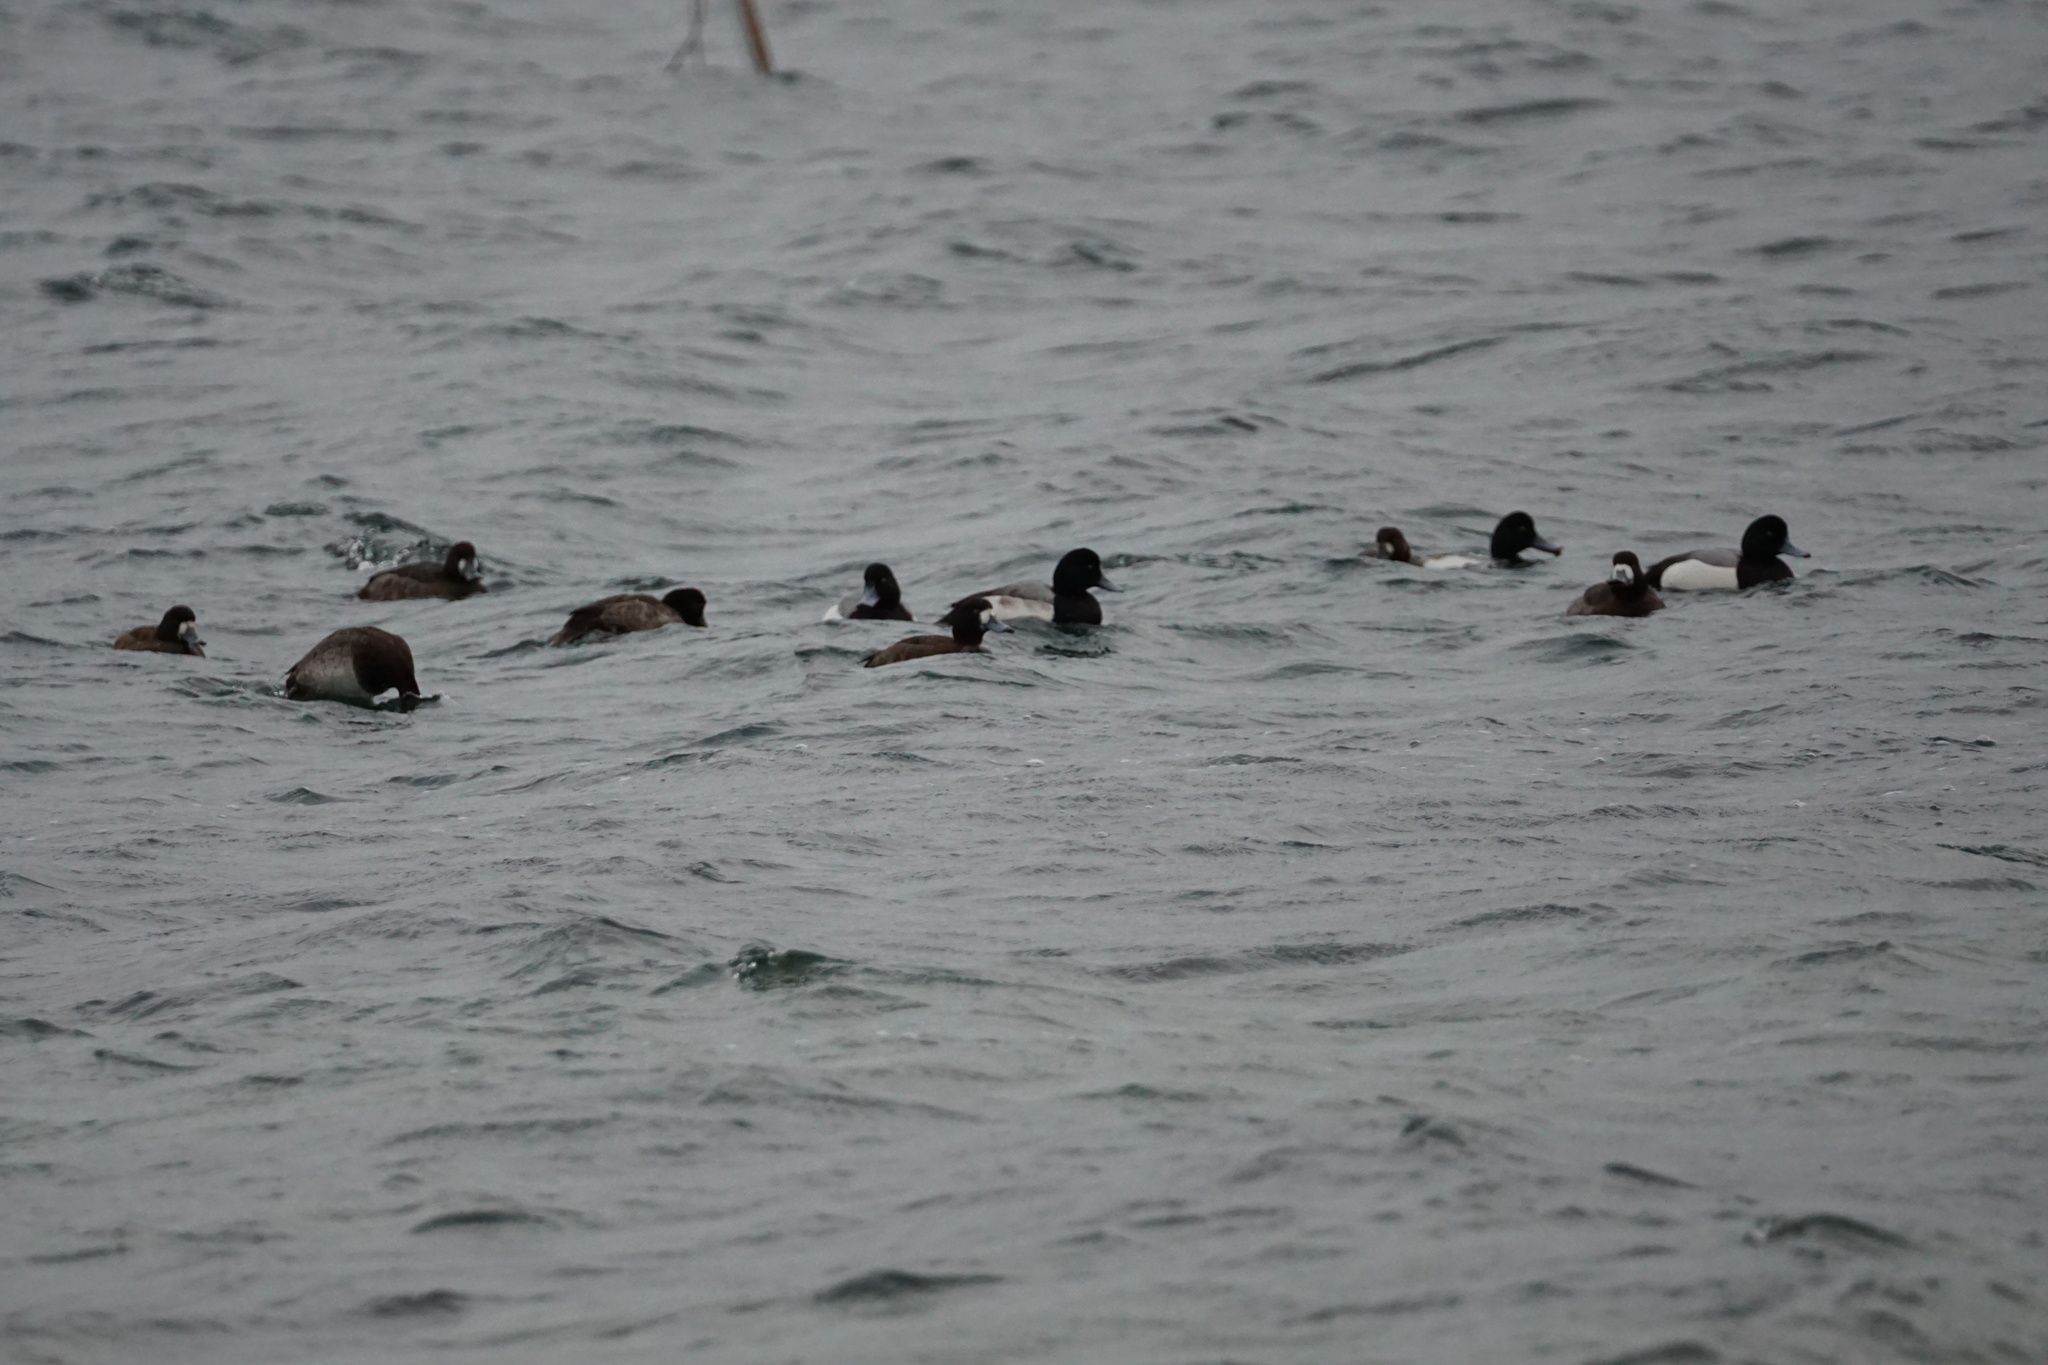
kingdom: Animalia
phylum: Chordata
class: Aves
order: Anseriformes
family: Anatidae
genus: Aythya
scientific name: Aythya marila
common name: Greater scaup
